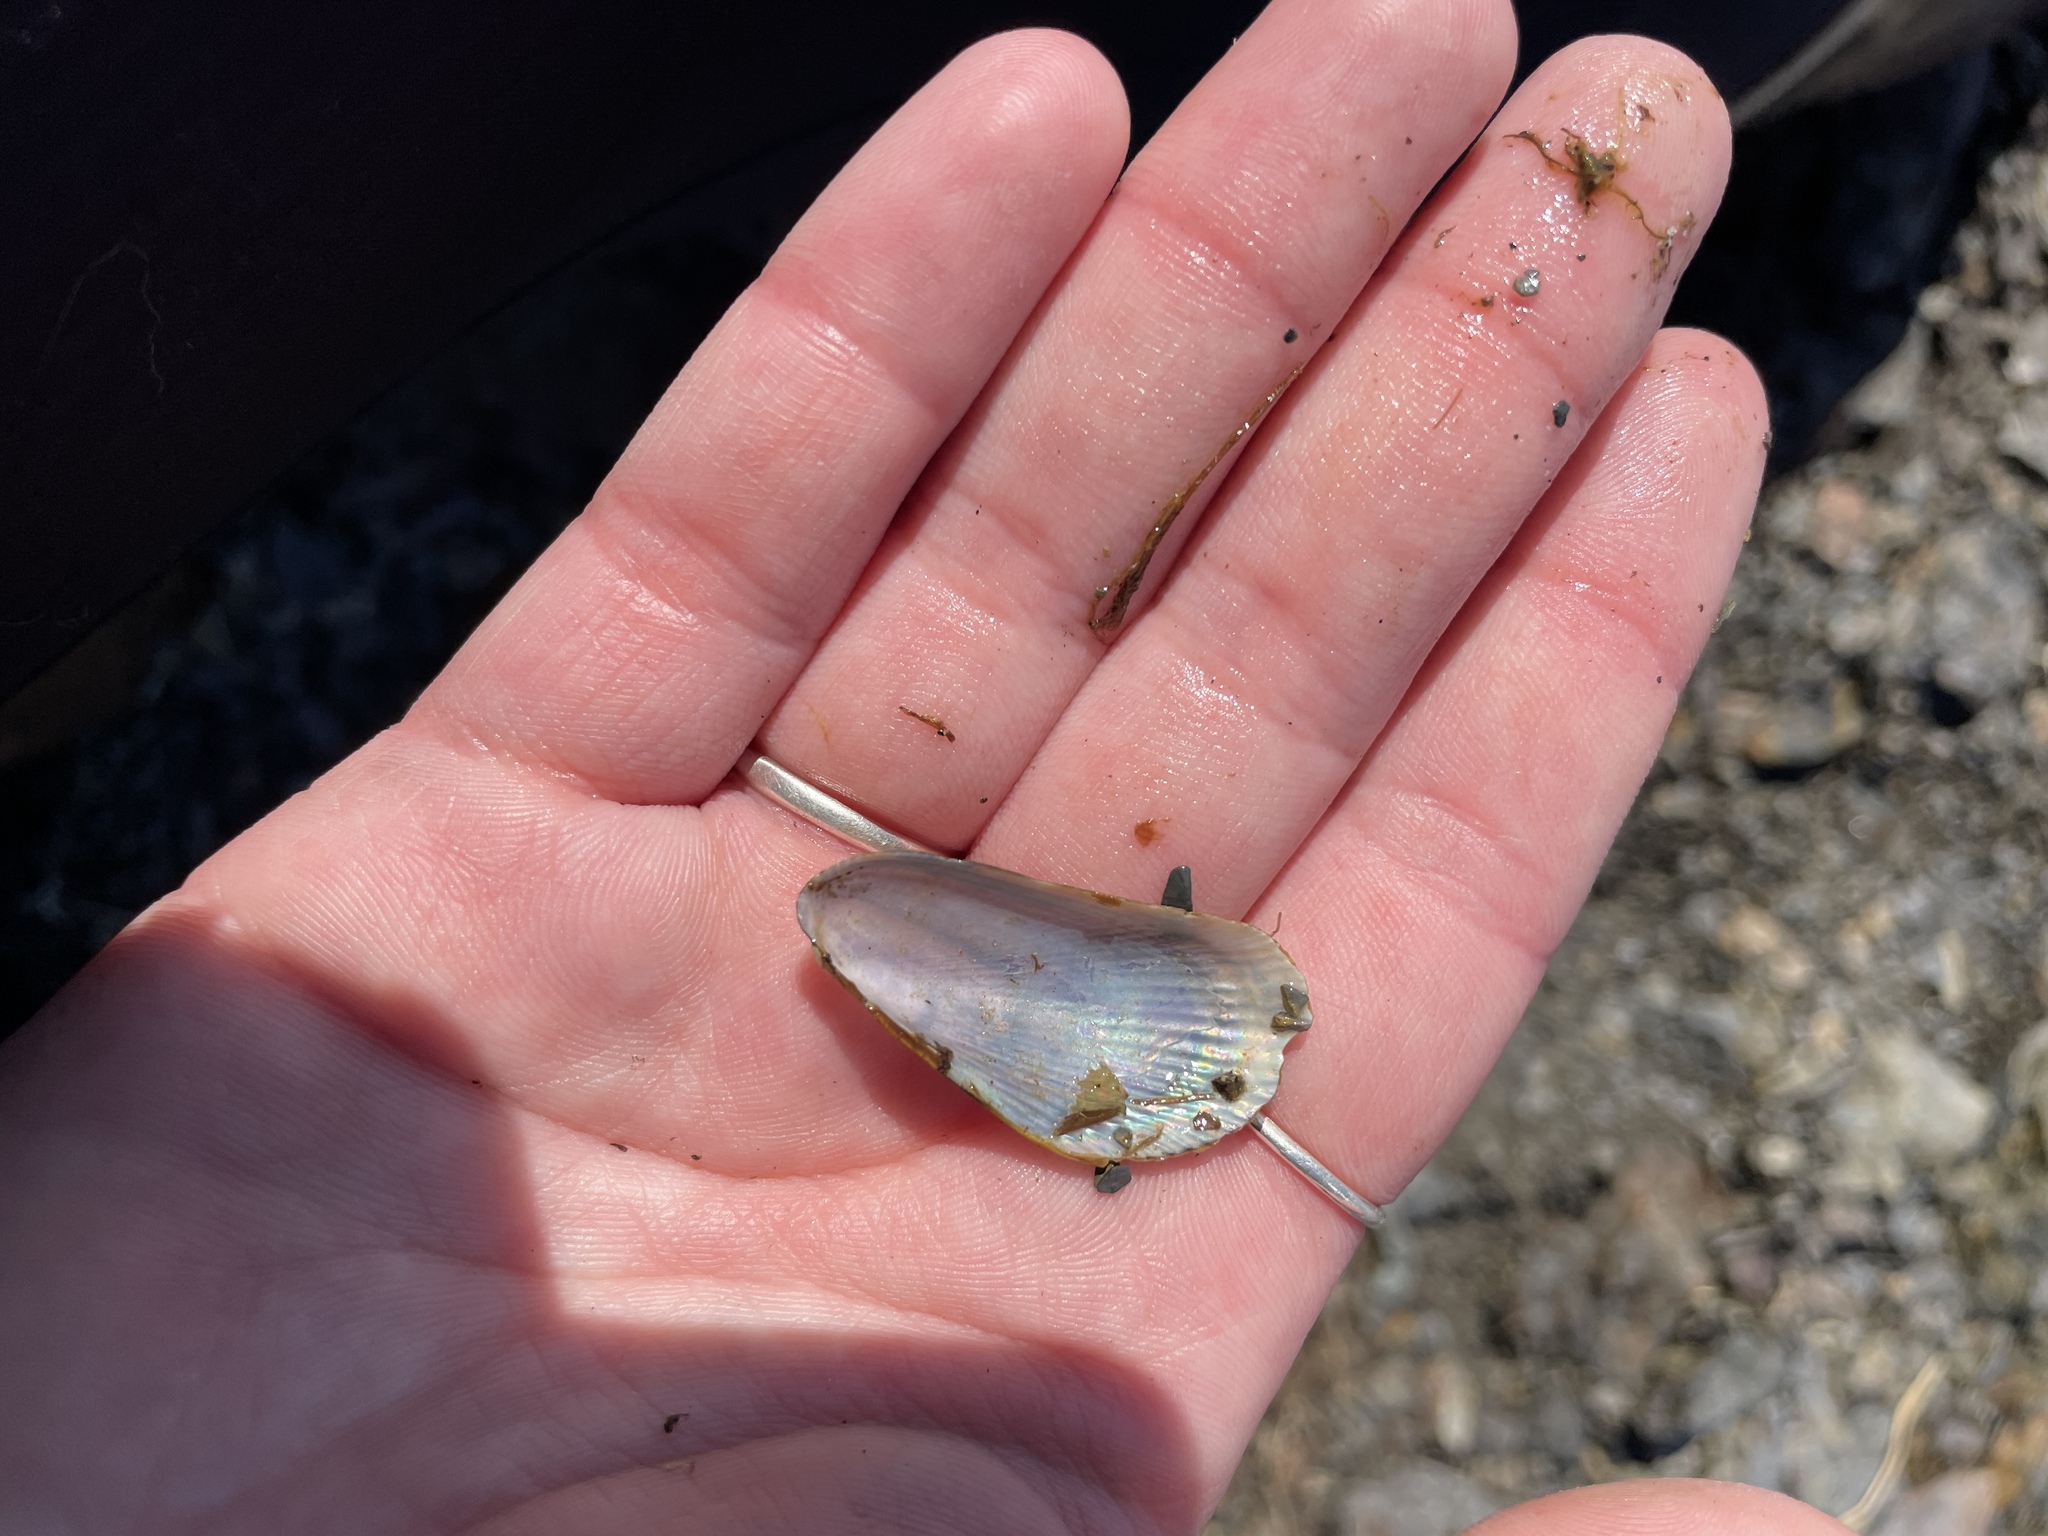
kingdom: Animalia
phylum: Mollusca
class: Bivalvia
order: Mytilida
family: Mytilidae
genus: Geukensia
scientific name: Geukensia demissa
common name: Ribbed mussel
